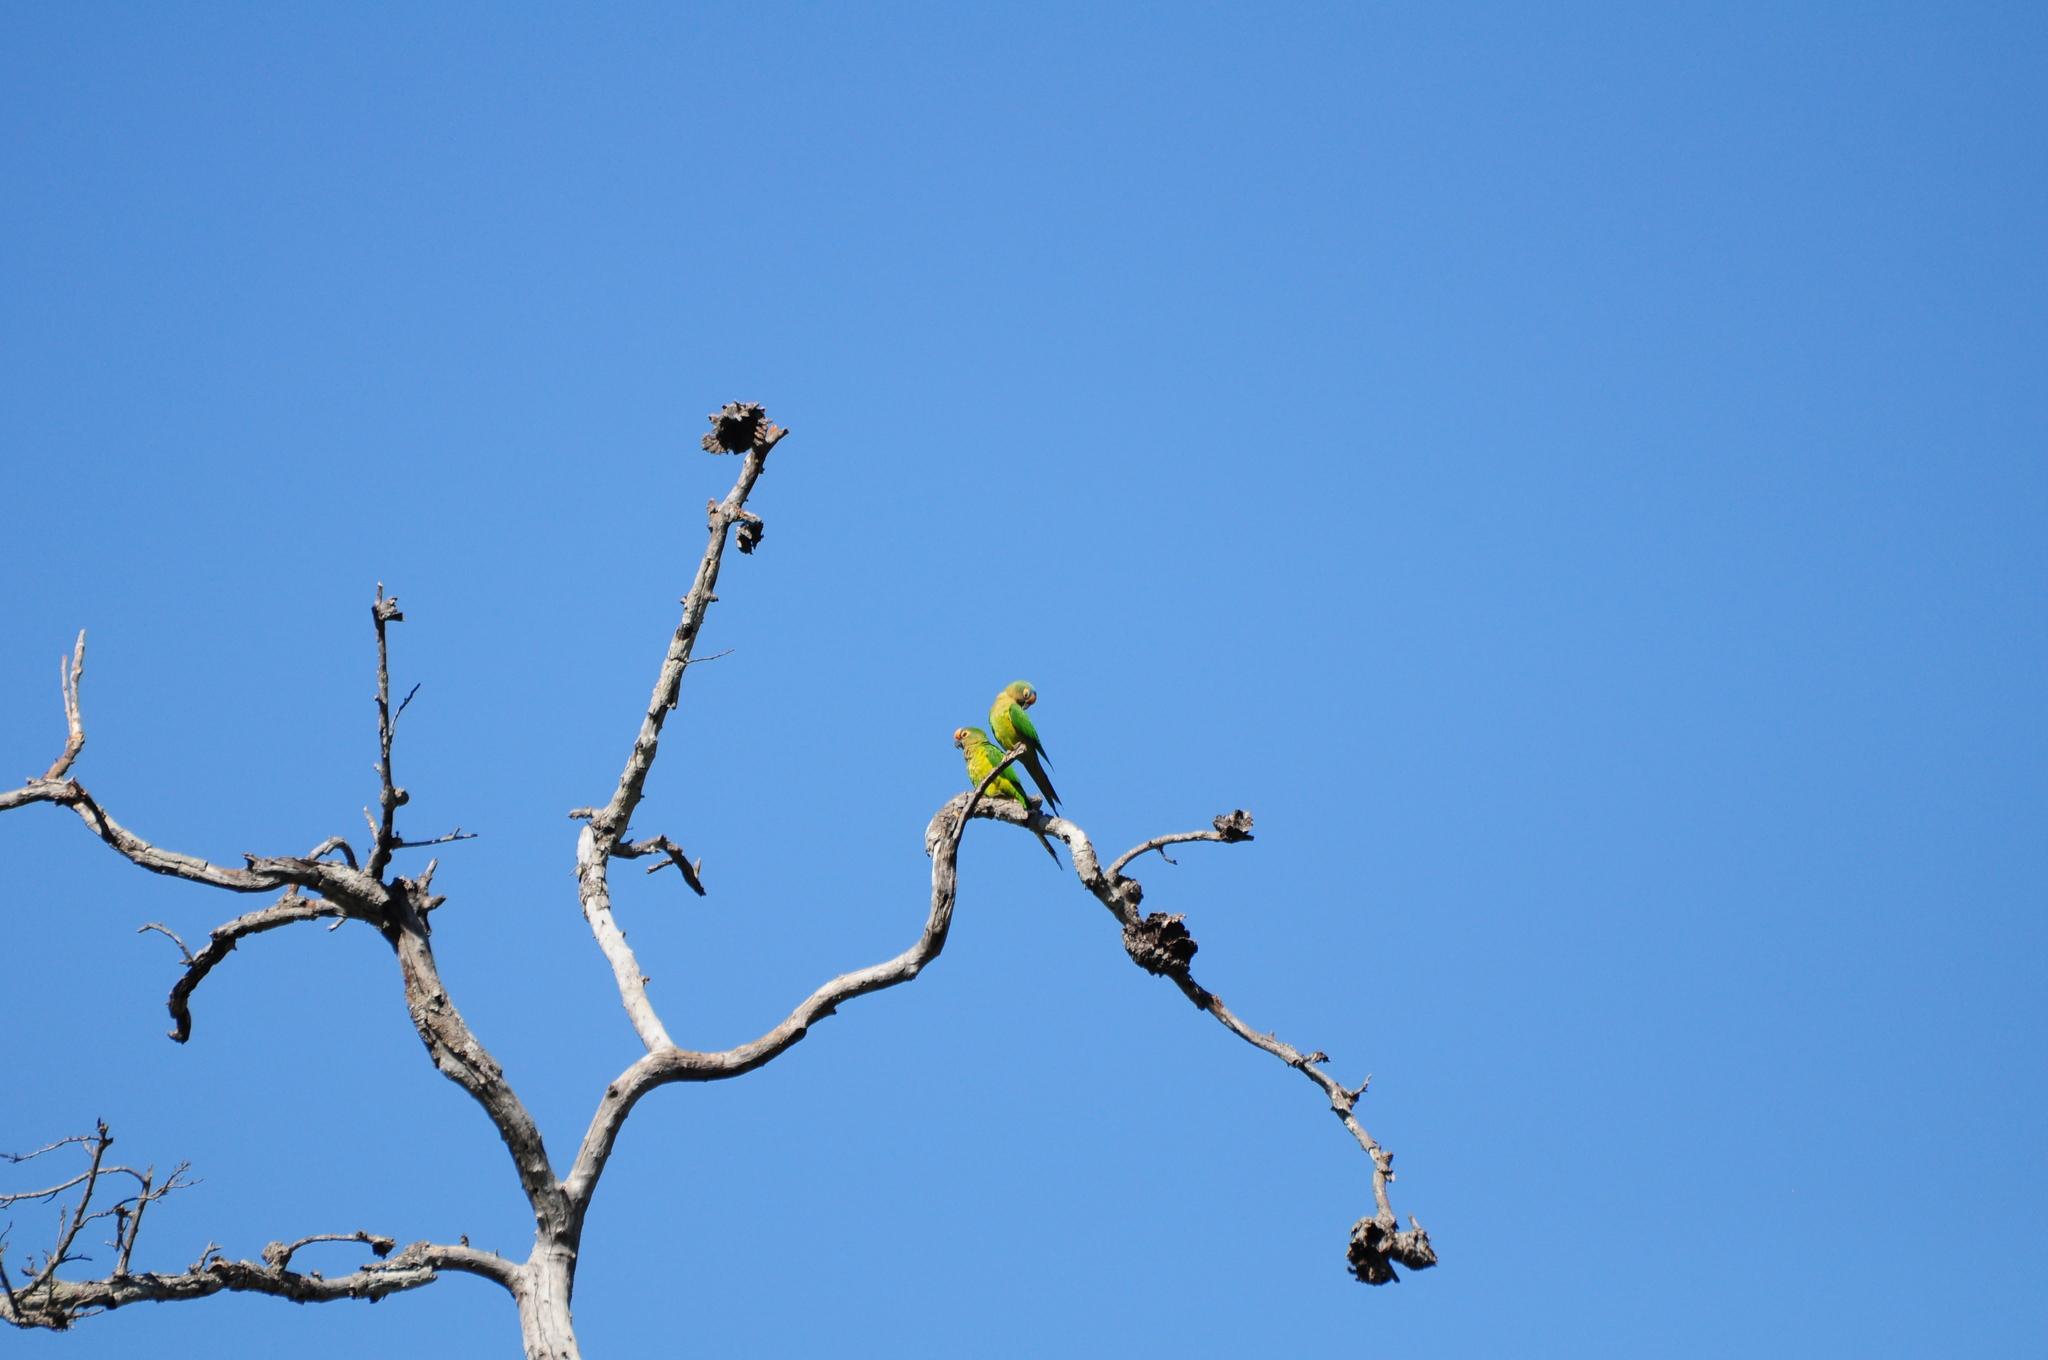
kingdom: Animalia
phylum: Chordata
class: Aves
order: Psittaciformes
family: Psittacidae
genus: Aratinga
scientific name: Aratinga aurea
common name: Peach-fronted parakeet
